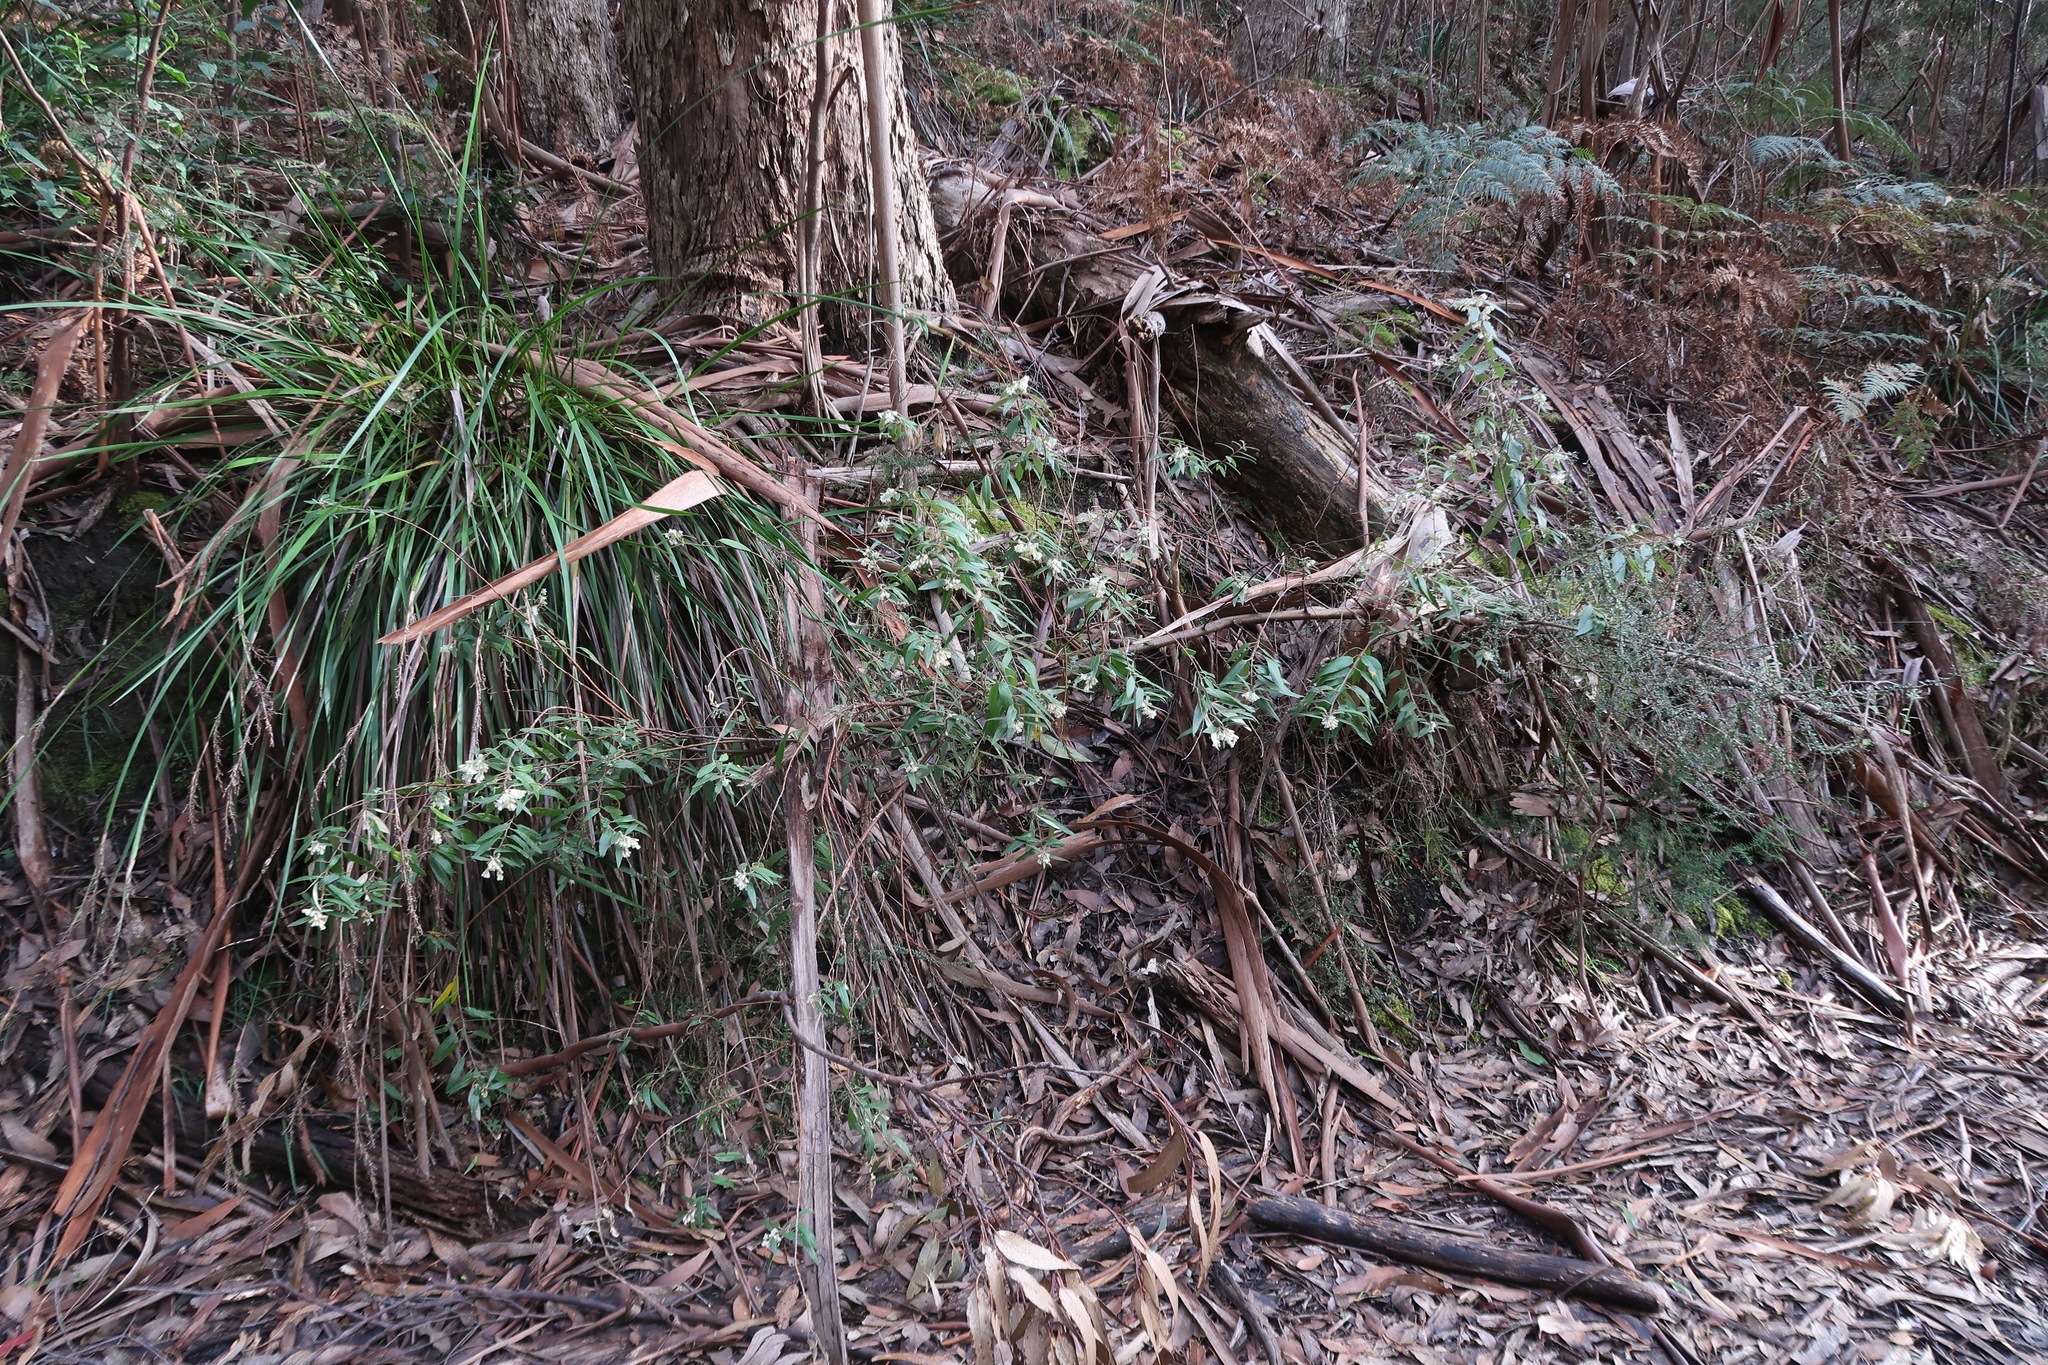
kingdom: Plantae
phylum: Tracheophyta
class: Magnoliopsida
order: Malvales
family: Malvaceae
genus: Asterotrichion
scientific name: Asterotrichion discolor
